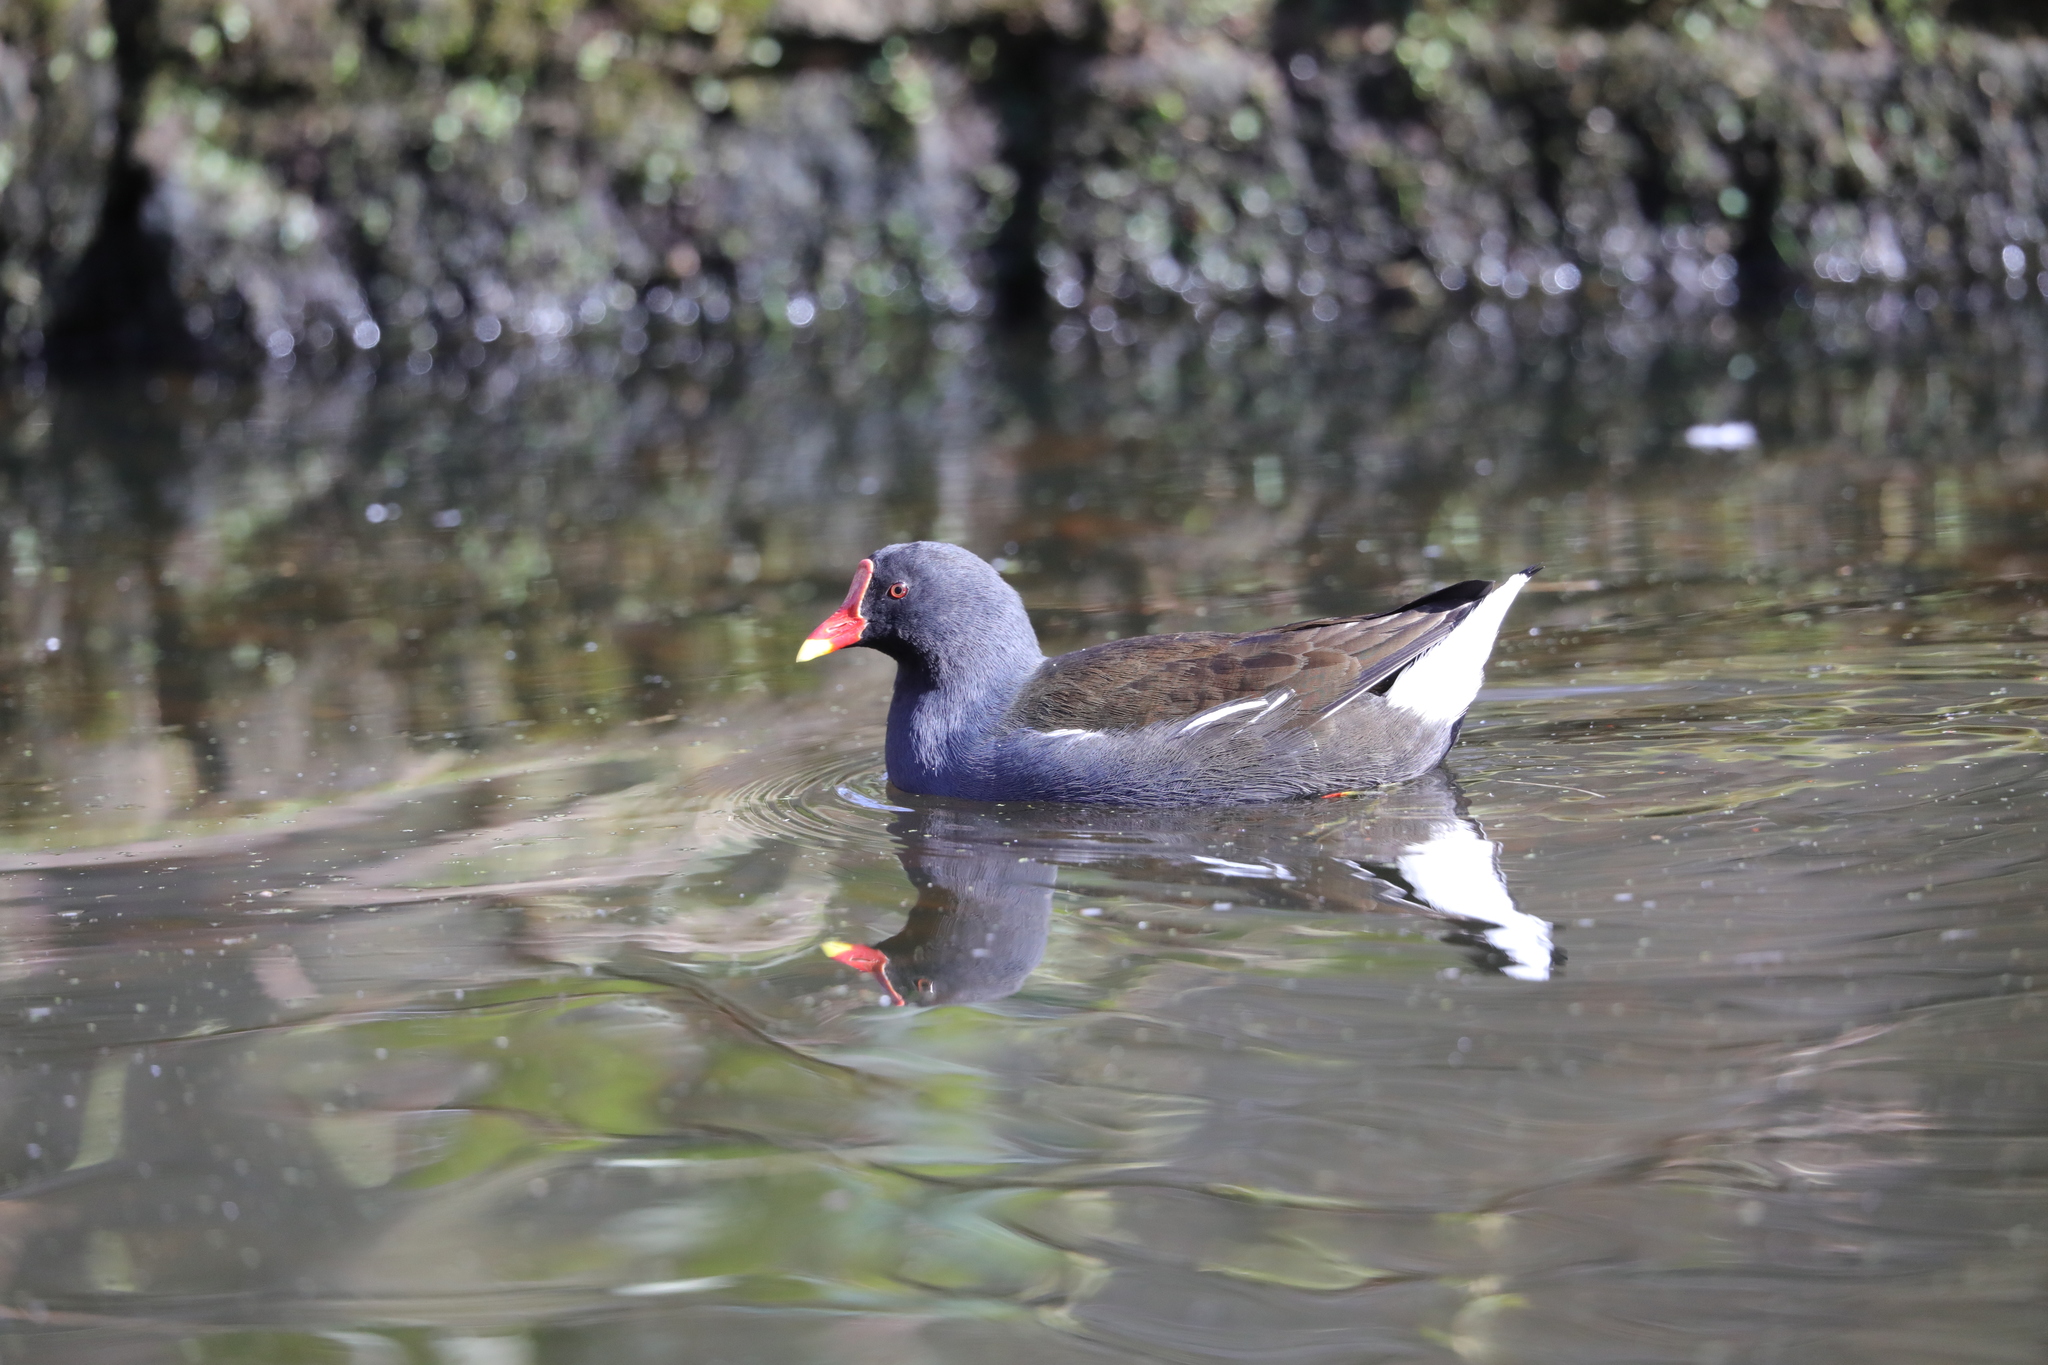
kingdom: Animalia
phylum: Chordata
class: Aves
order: Gruiformes
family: Rallidae
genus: Gallinula
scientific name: Gallinula chloropus
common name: Common moorhen
